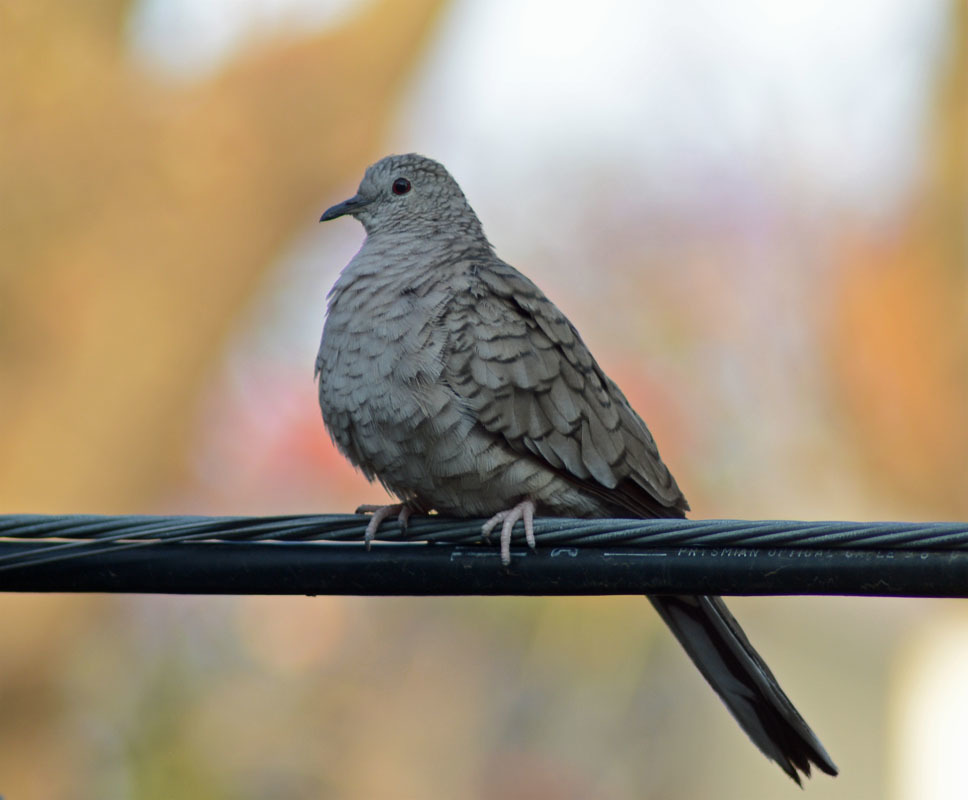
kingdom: Animalia
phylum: Chordata
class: Aves
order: Columbiformes
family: Columbidae
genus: Columbina
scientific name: Columbina inca
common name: Inca dove
